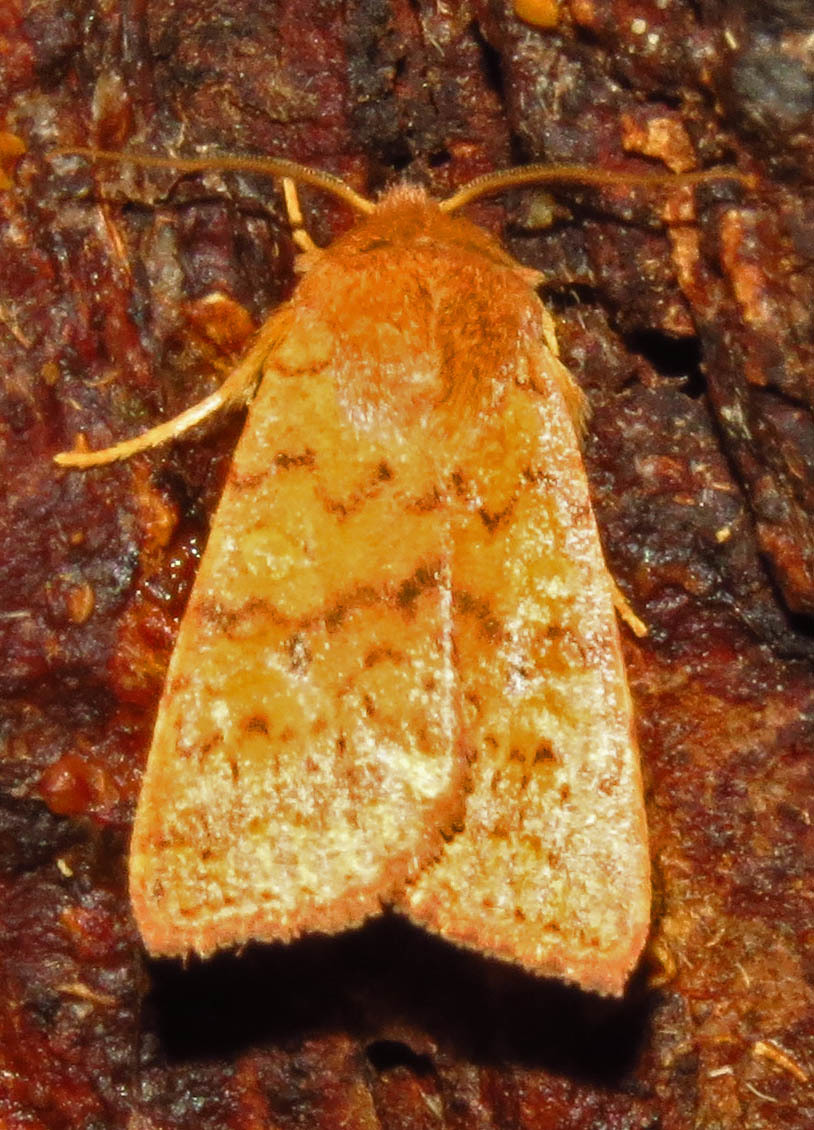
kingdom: Animalia
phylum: Arthropoda
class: Insecta
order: Lepidoptera
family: Noctuidae
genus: Agrochola
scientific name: Agrochola bicolorago
